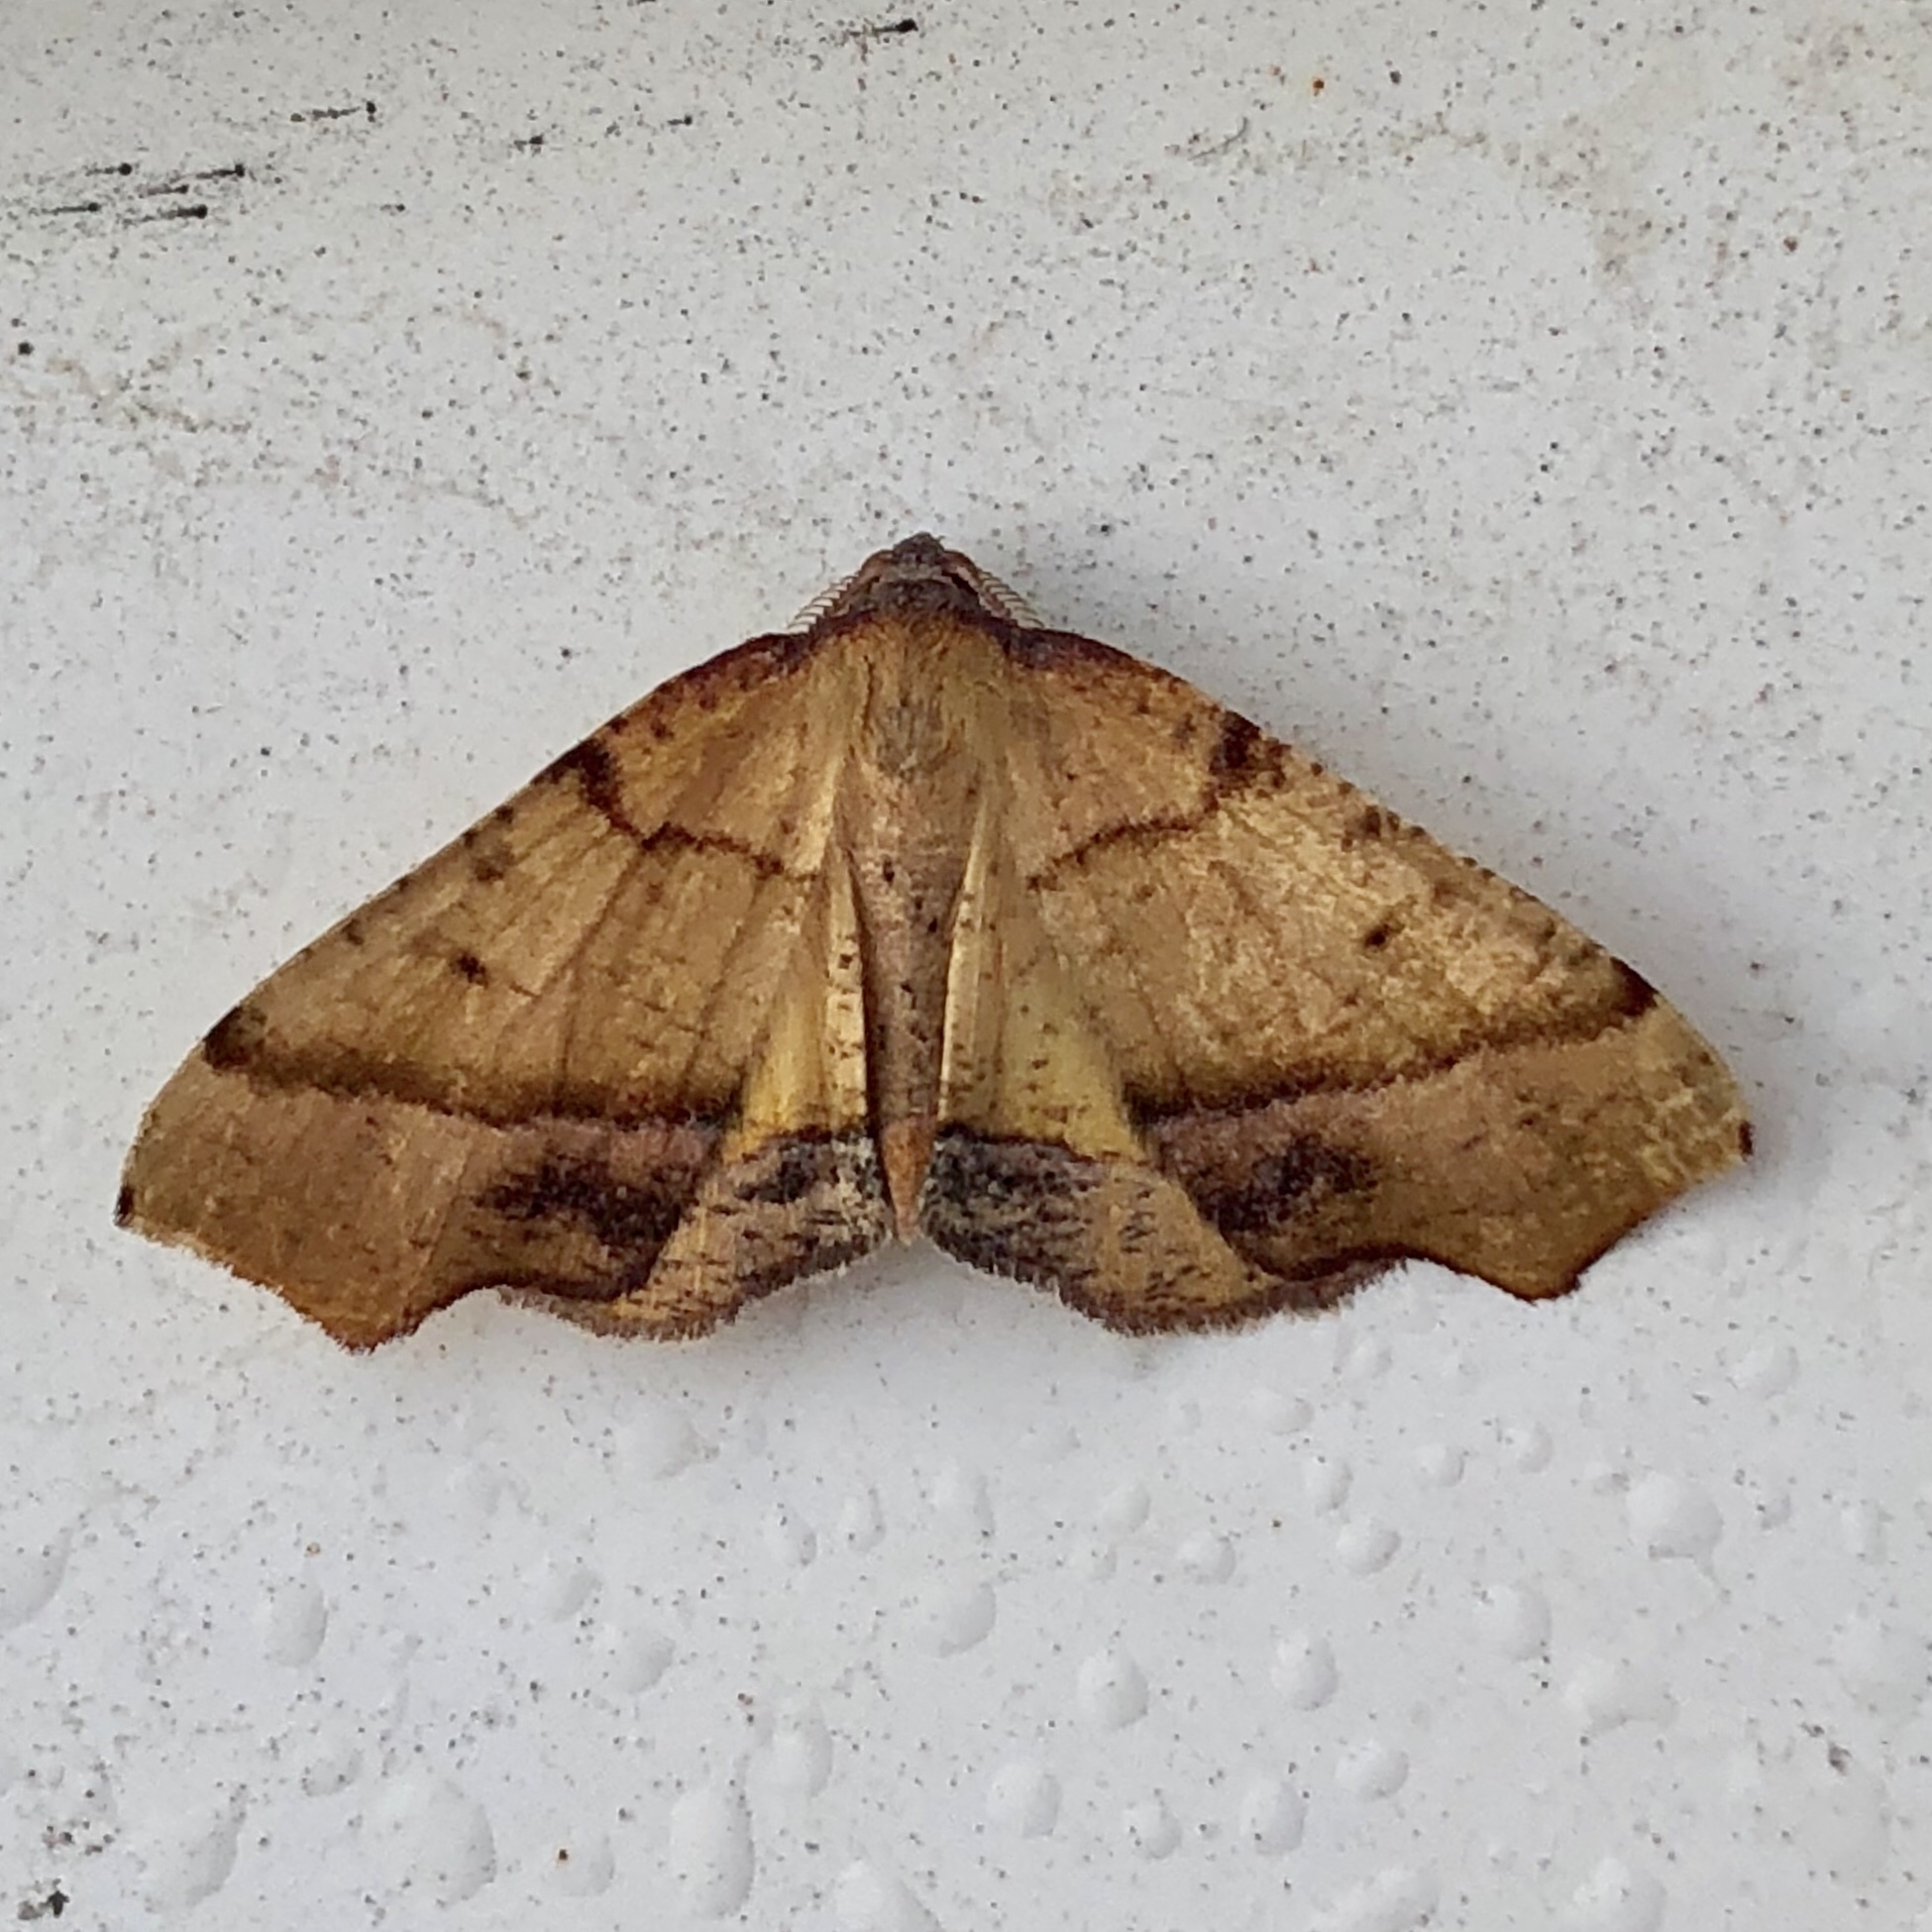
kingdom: Animalia
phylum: Arthropoda
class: Insecta
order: Lepidoptera
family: Geometridae
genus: Plagodis
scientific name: Plagodis phlogosaria
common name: Straight-lined plagodis
